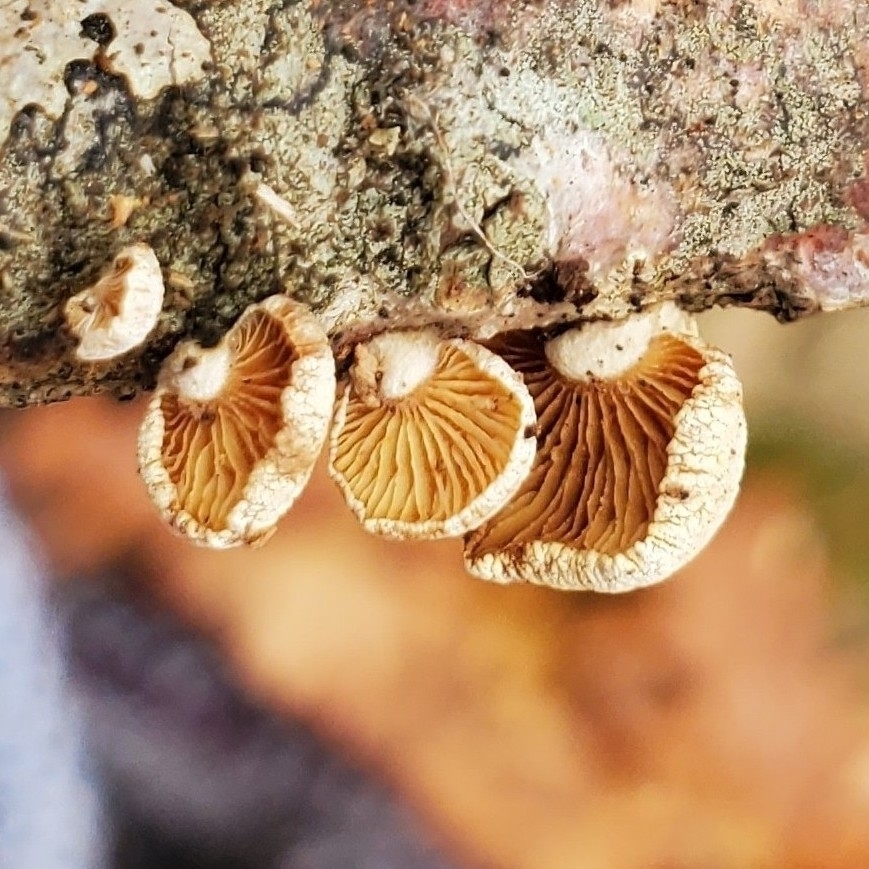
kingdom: Fungi
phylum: Basidiomycota
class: Agaricomycetes
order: Agaricales
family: Mycenaceae
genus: Panellus
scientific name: Panellus stipticus
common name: Bitter oysterling
